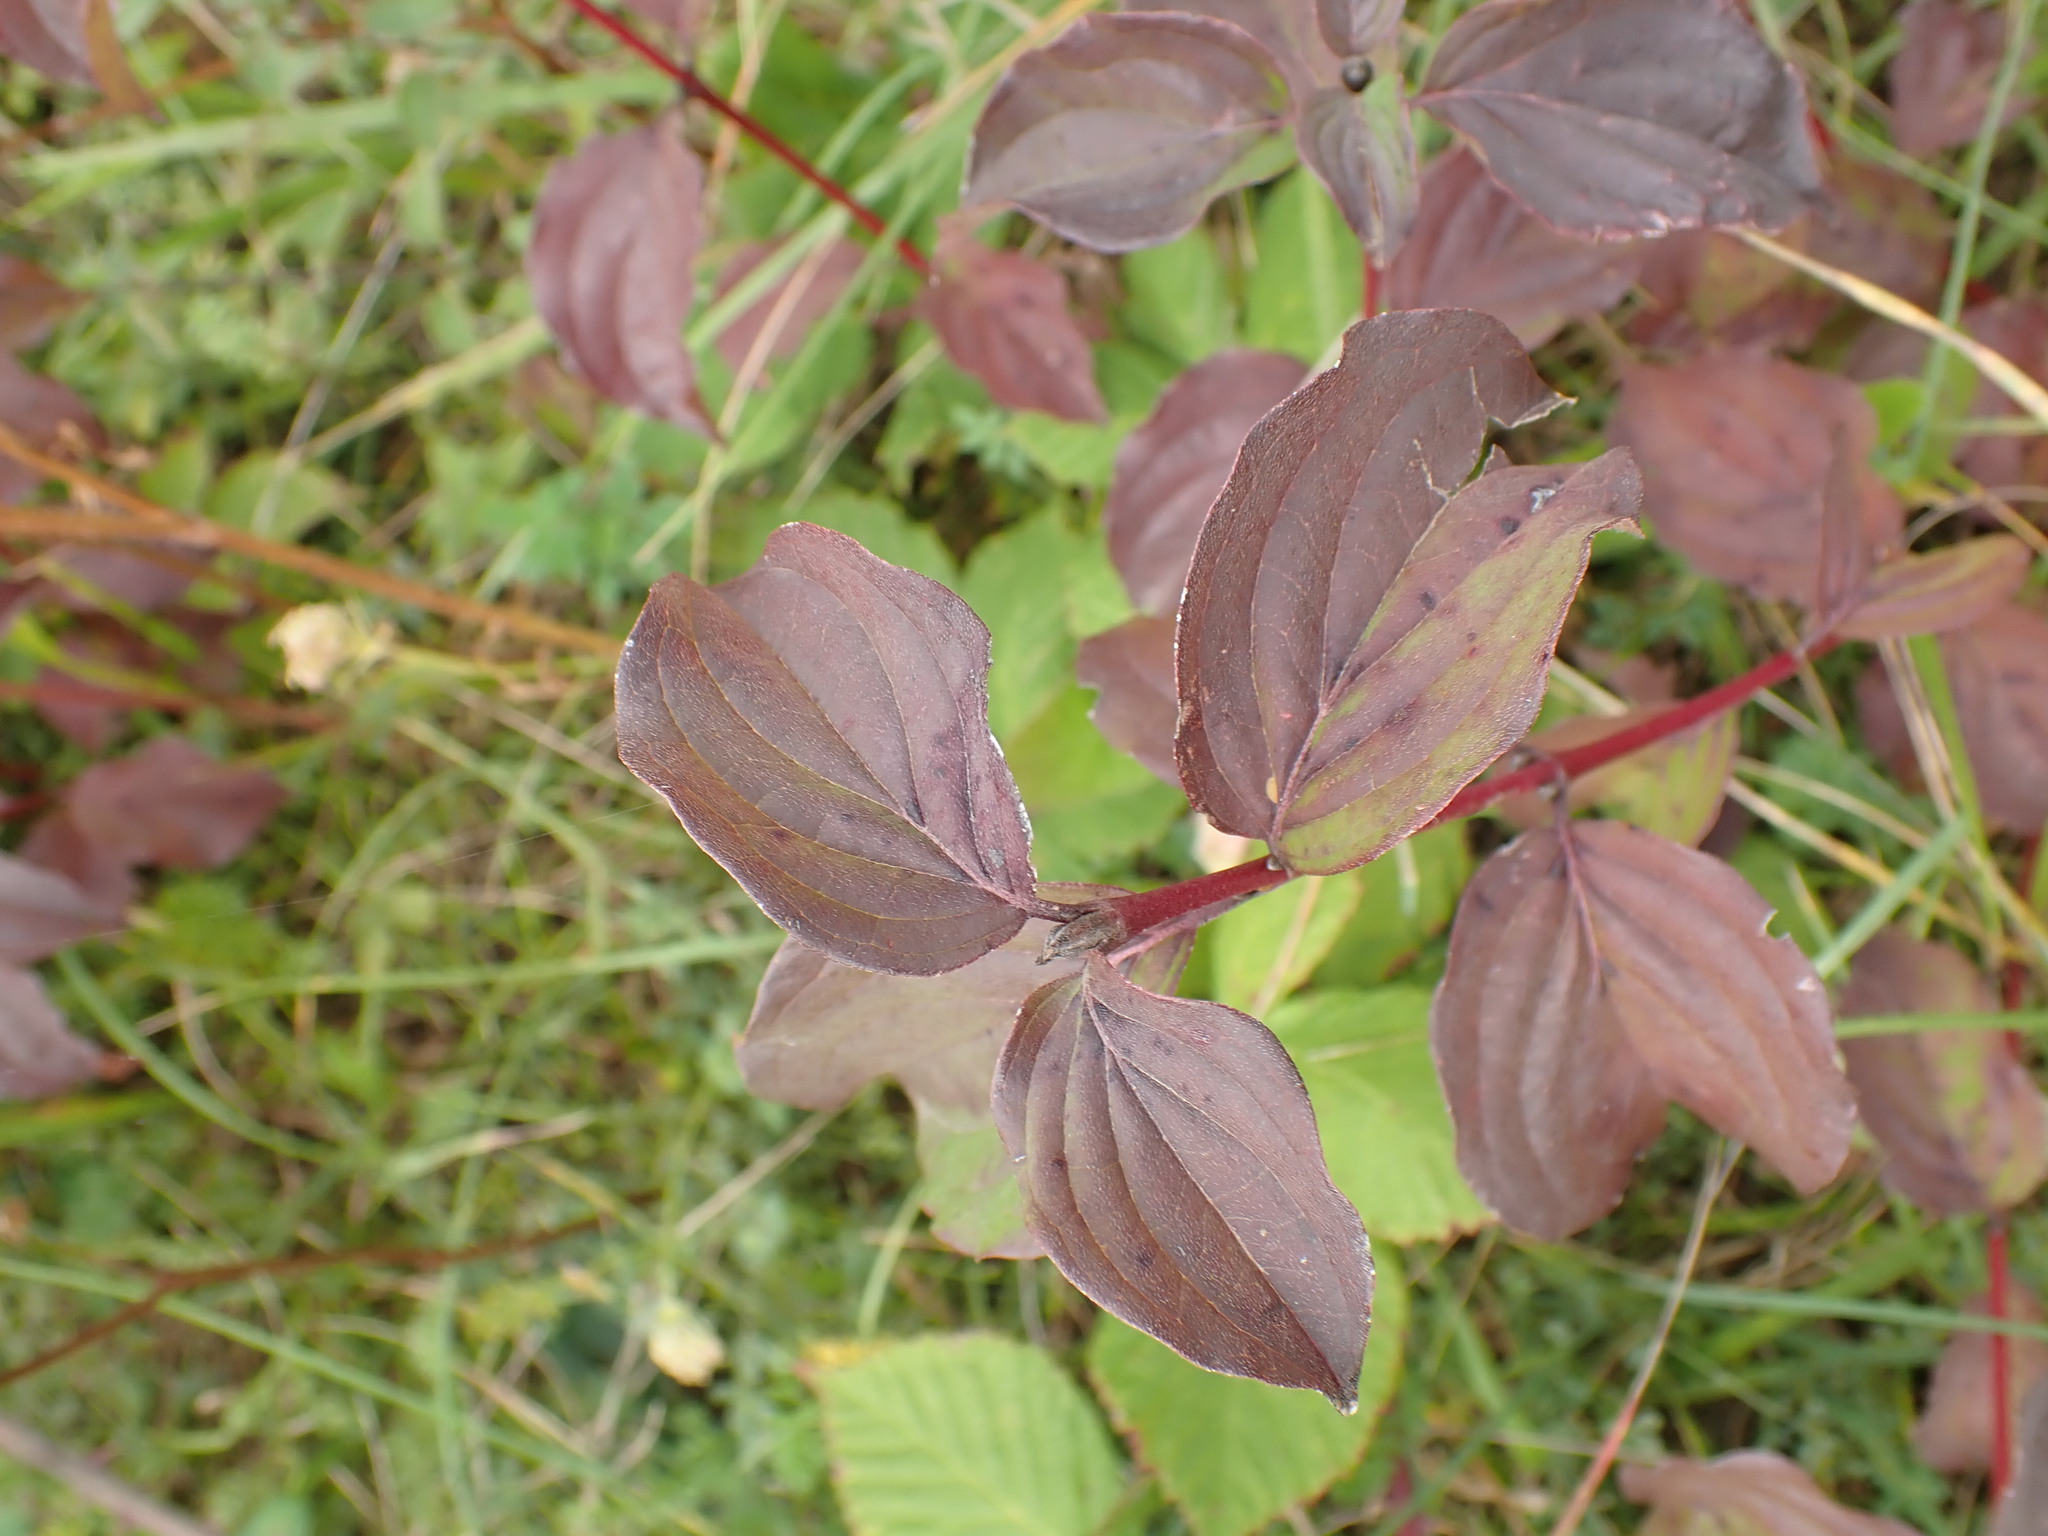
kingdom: Plantae
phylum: Tracheophyta
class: Magnoliopsida
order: Cornales
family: Cornaceae
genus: Cornus
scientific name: Cornus sanguinea
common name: Dogwood
